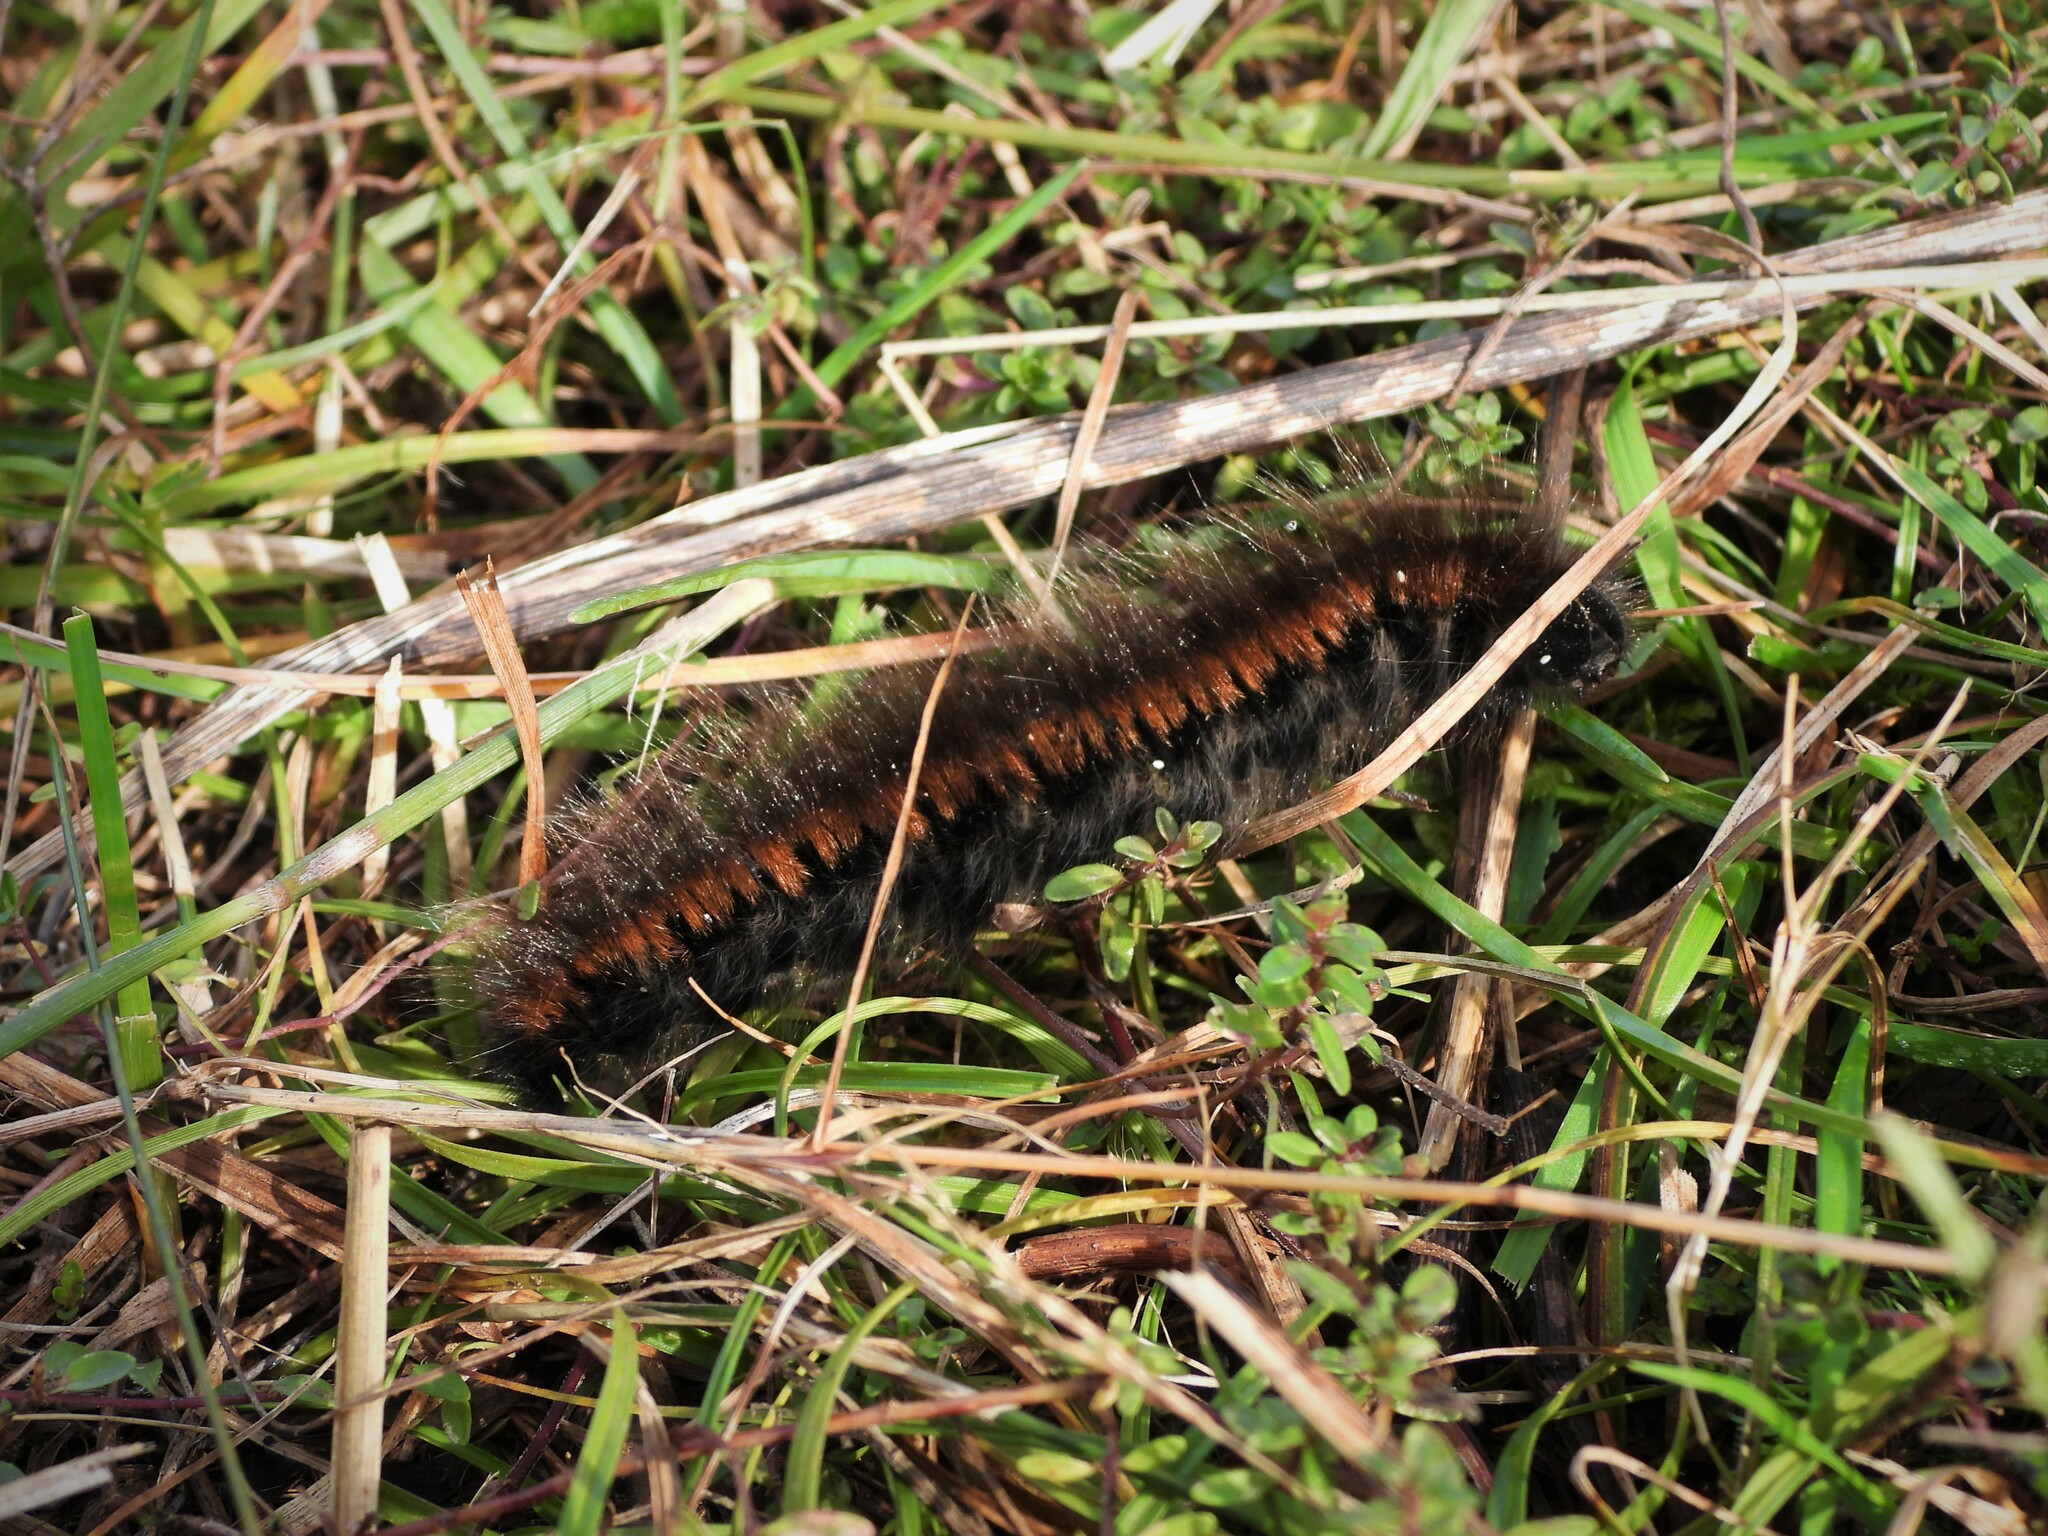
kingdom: Animalia
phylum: Arthropoda
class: Insecta
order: Lepidoptera
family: Lasiocampidae
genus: Macrothylacia
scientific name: Macrothylacia rubi
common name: Fox moth
